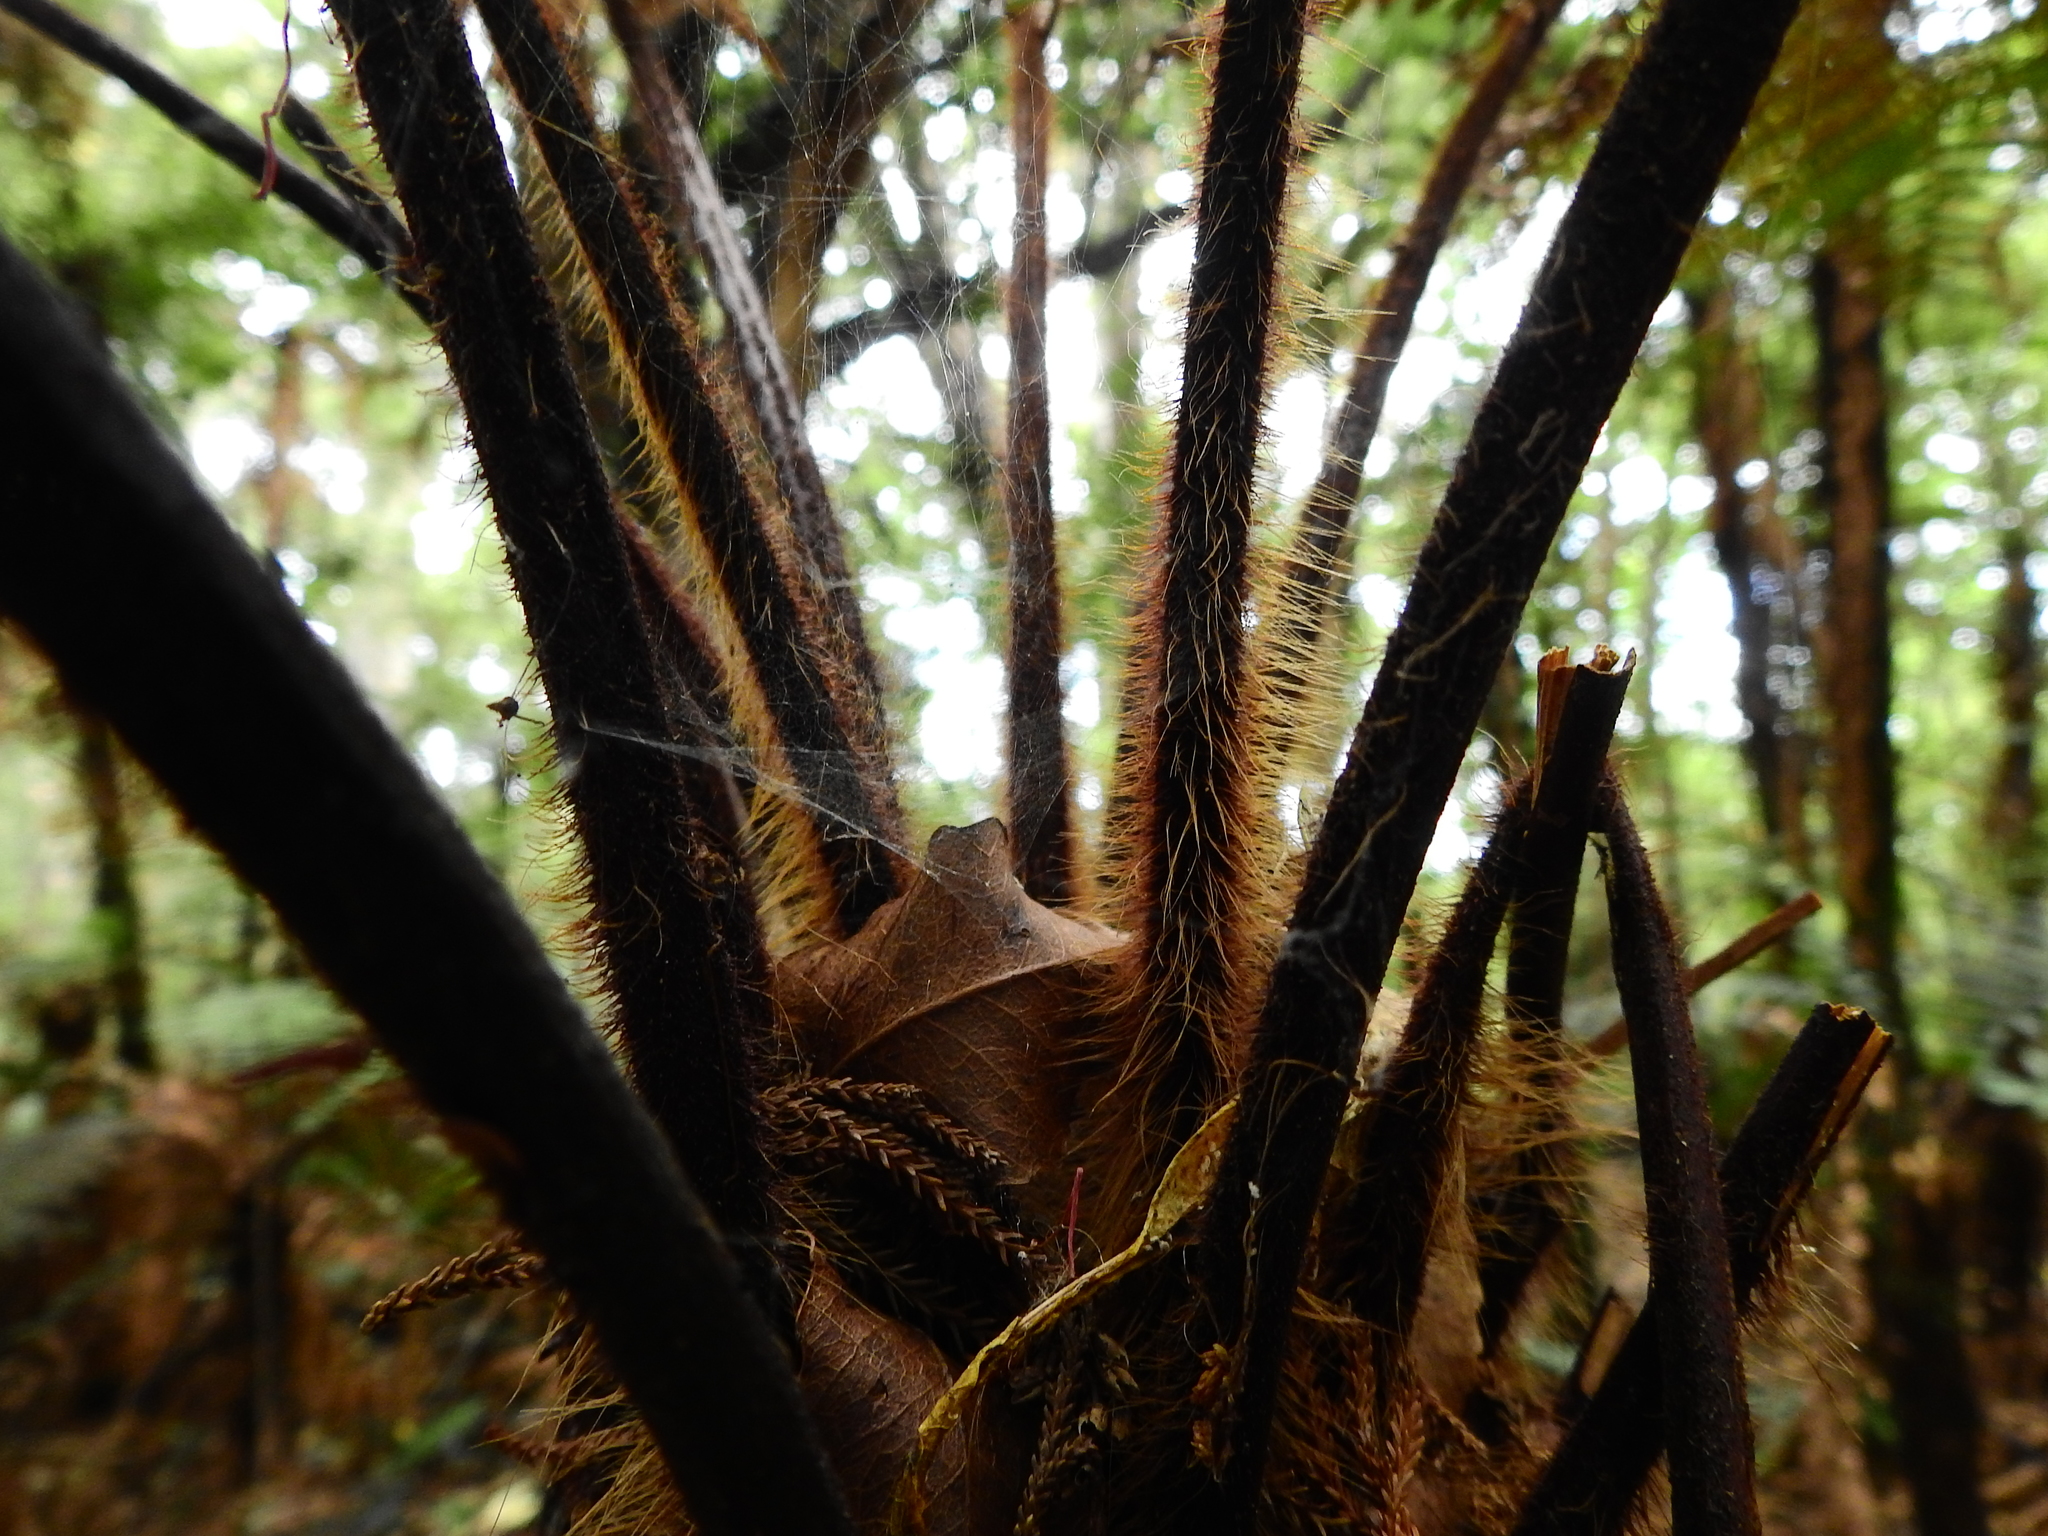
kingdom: Plantae
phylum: Tracheophyta
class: Polypodiopsida
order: Cyatheales
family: Dicksoniaceae
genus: Dicksonia
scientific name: Dicksonia squarrosa
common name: Hard treefern
